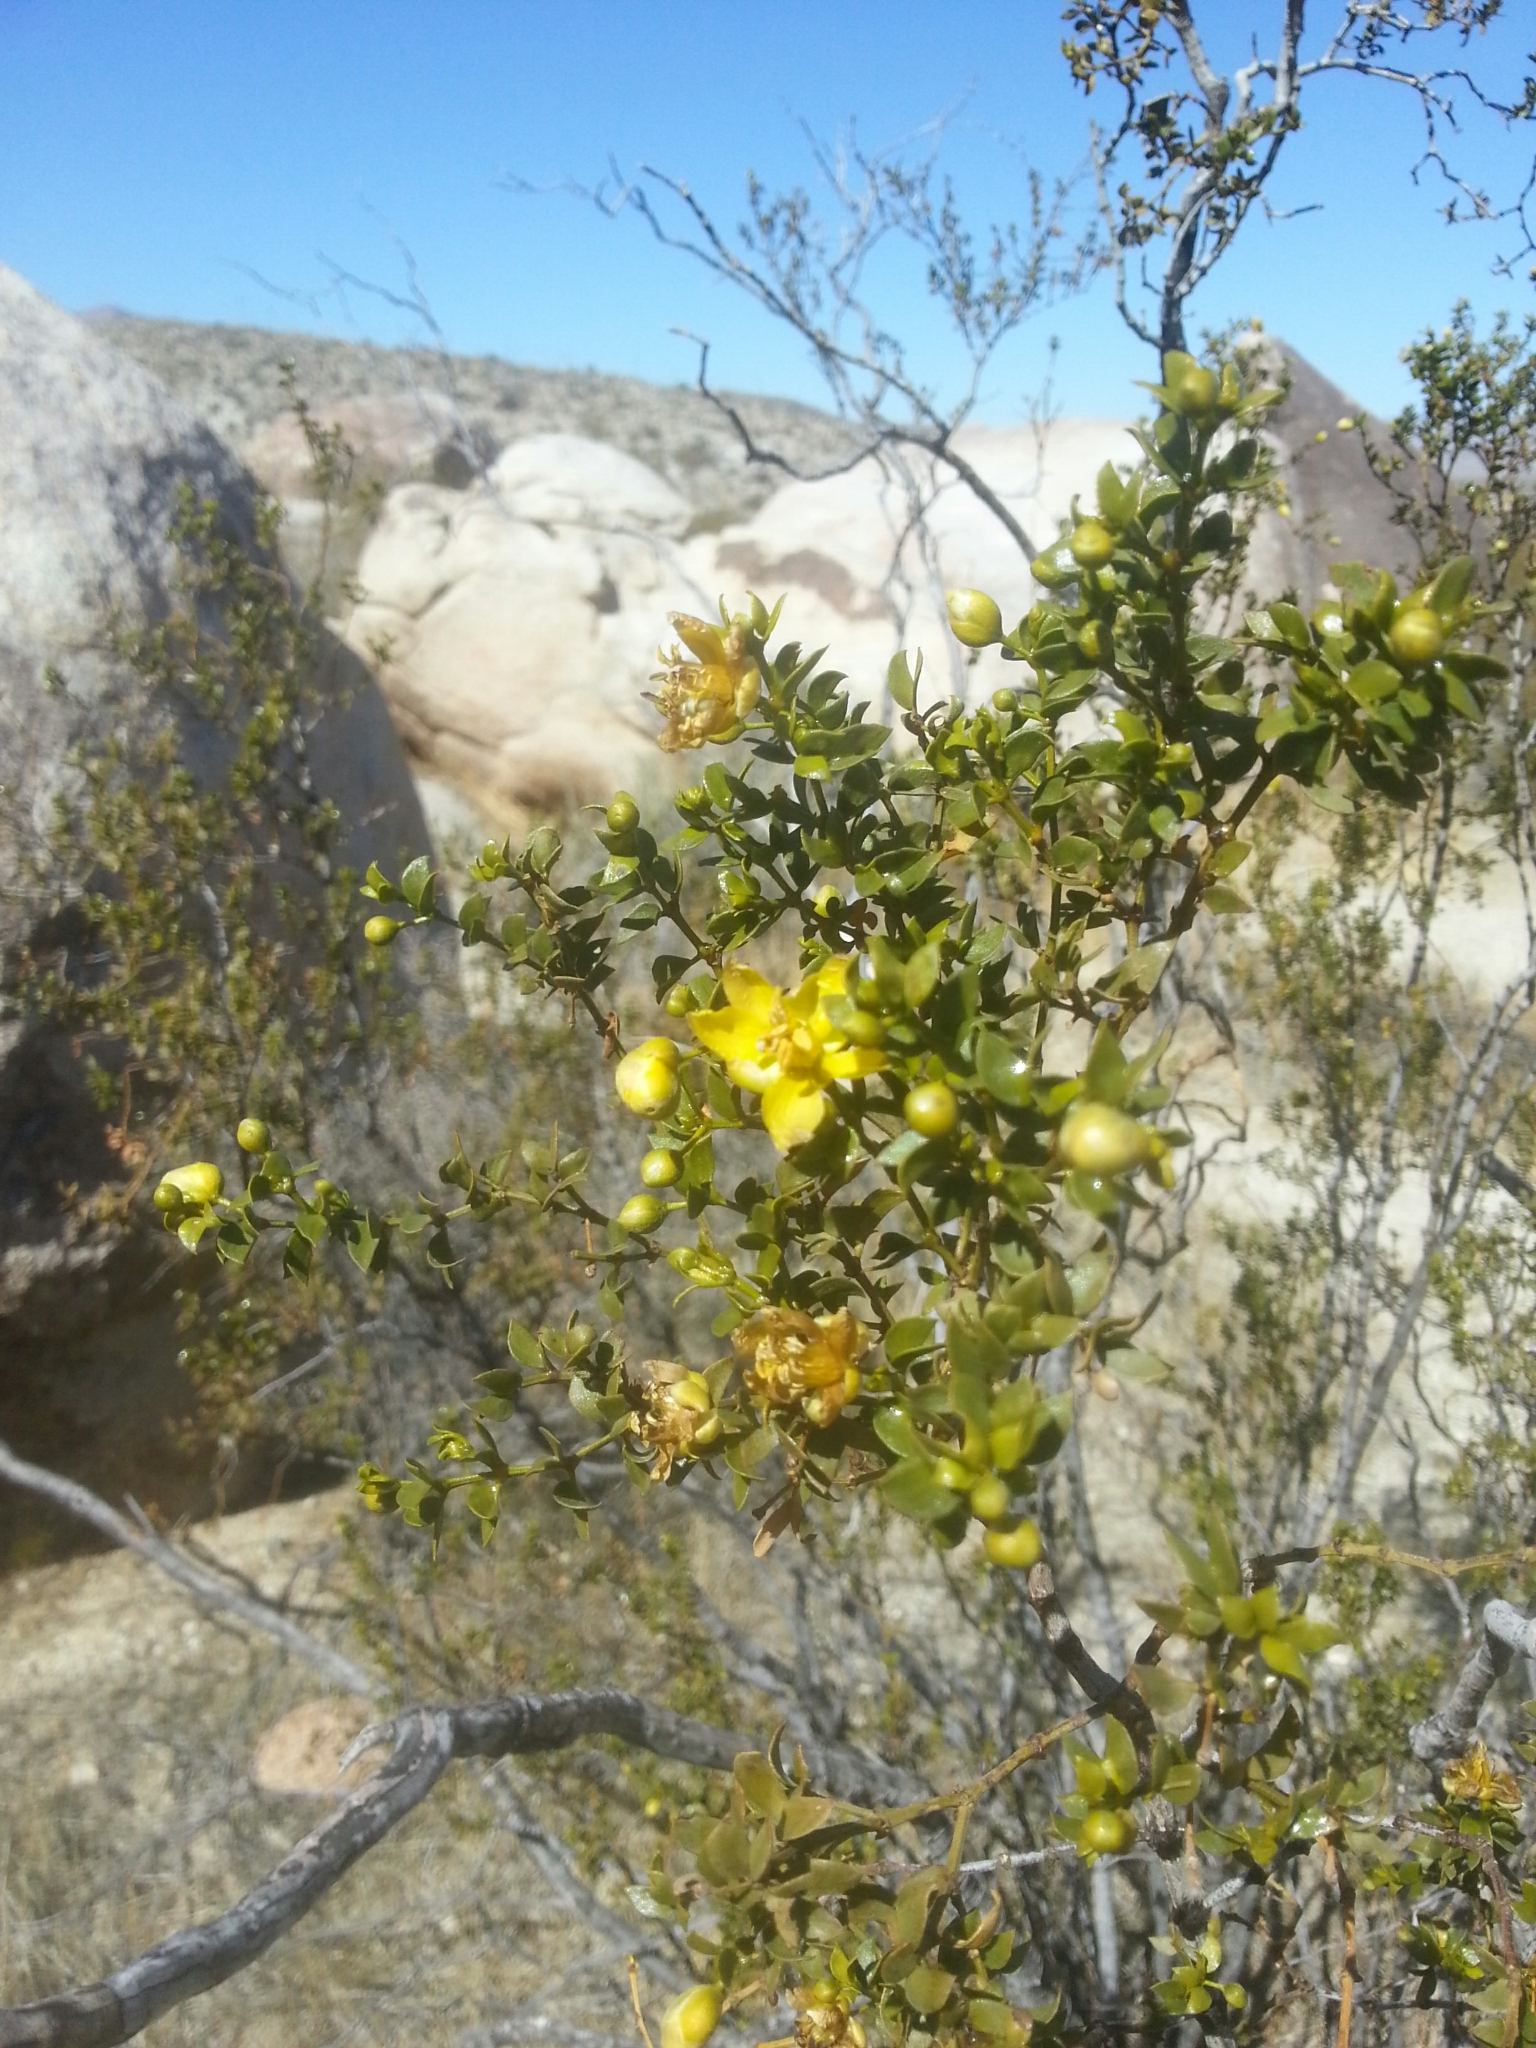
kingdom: Plantae
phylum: Tracheophyta
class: Magnoliopsida
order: Zygophyllales
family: Zygophyllaceae
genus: Larrea
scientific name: Larrea tridentata
